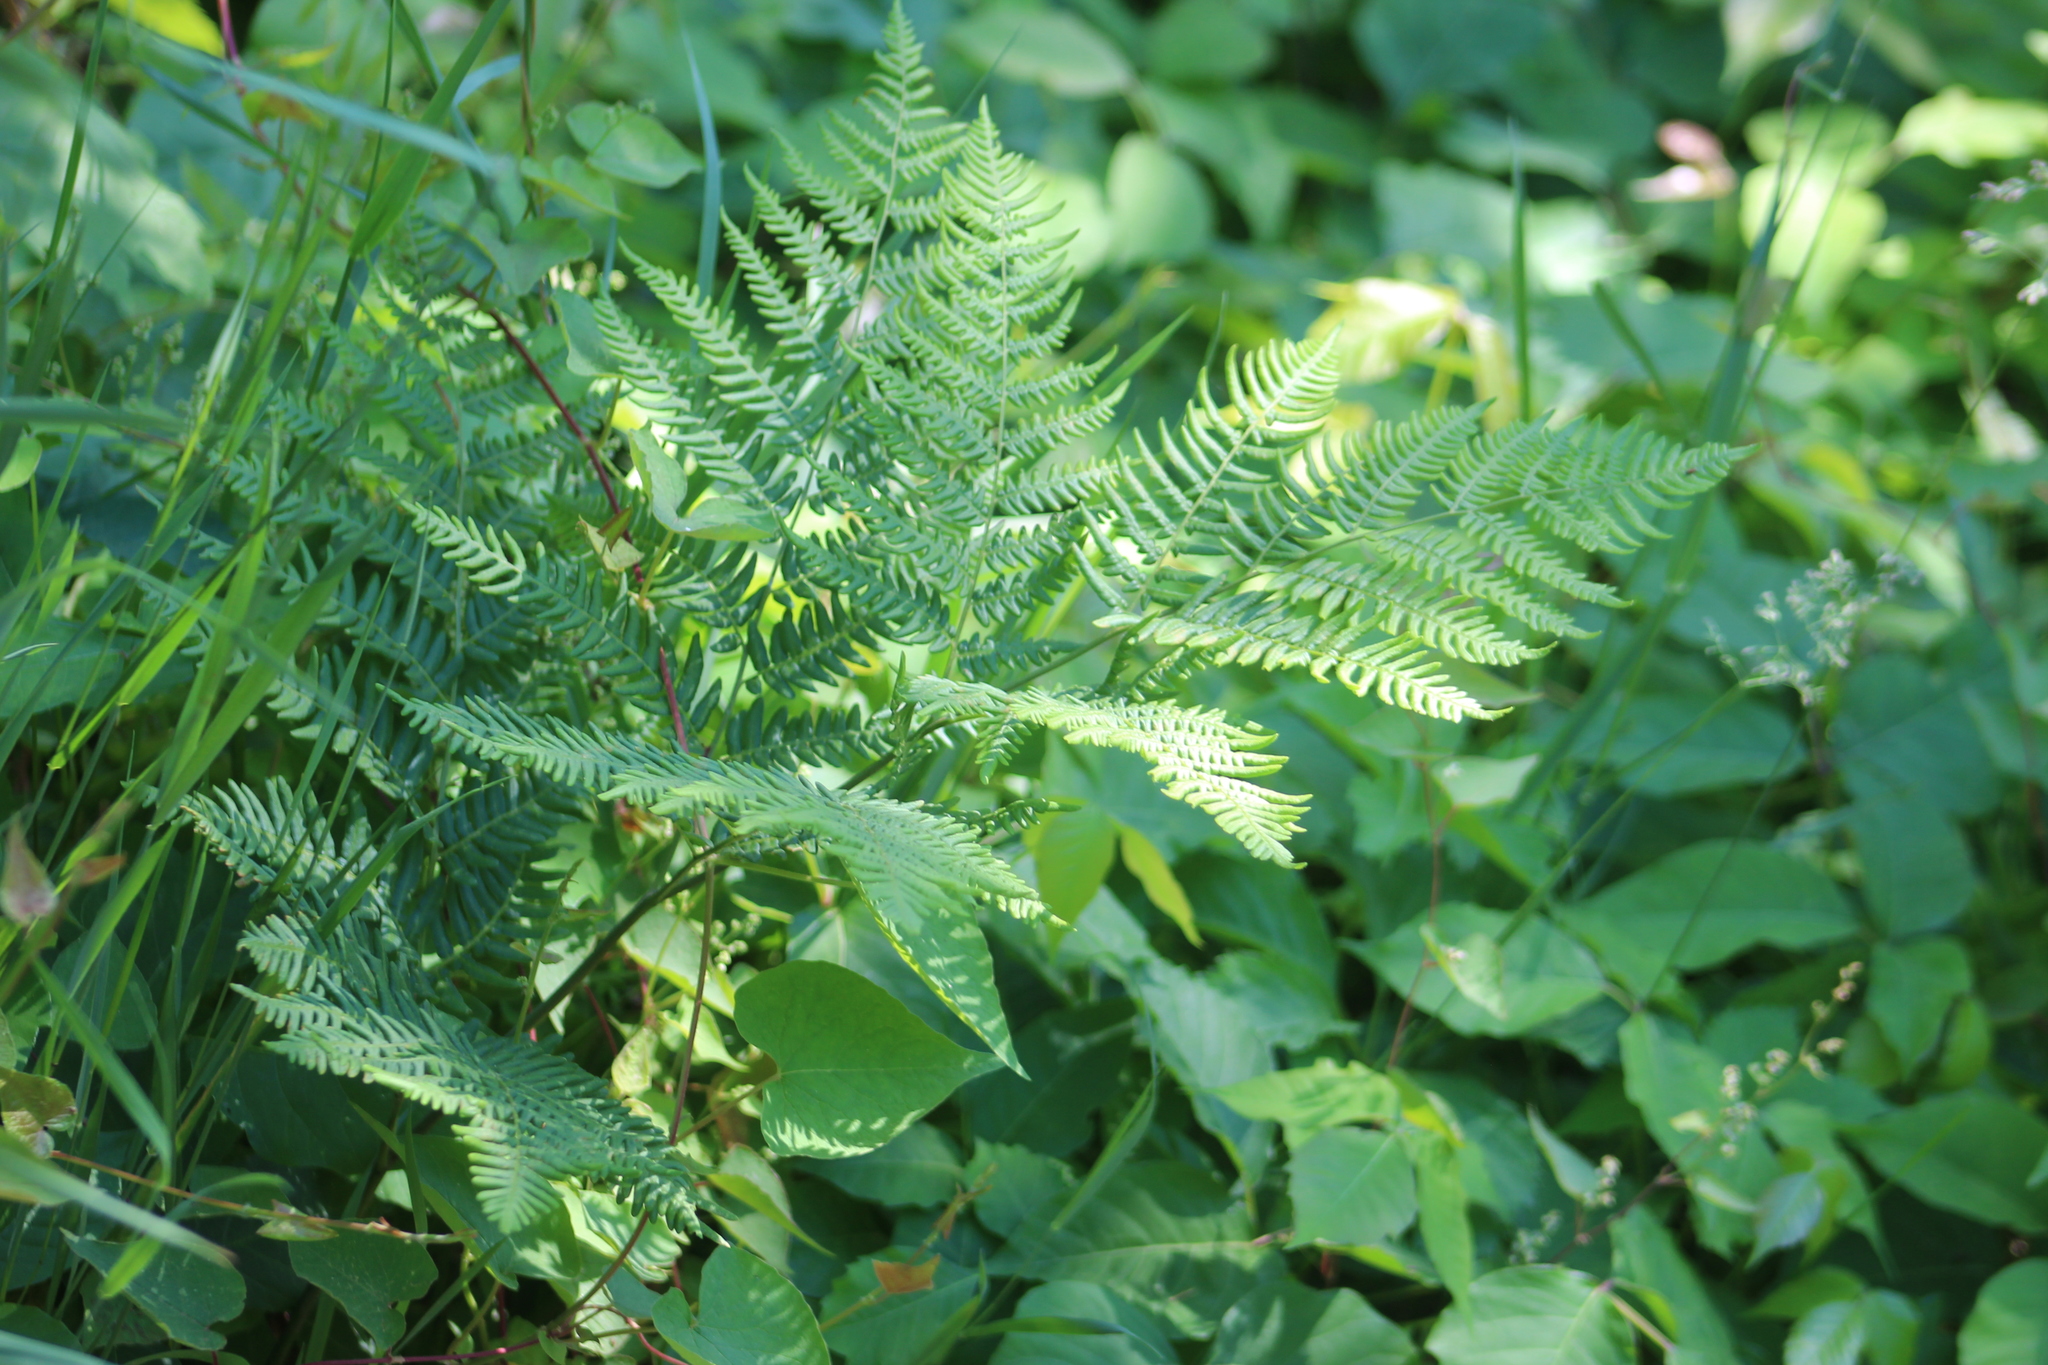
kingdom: Plantae
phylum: Tracheophyta
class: Polypodiopsida
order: Polypodiales
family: Dennstaedtiaceae
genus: Pteridium
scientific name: Pteridium aquilinum
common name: Bracken
